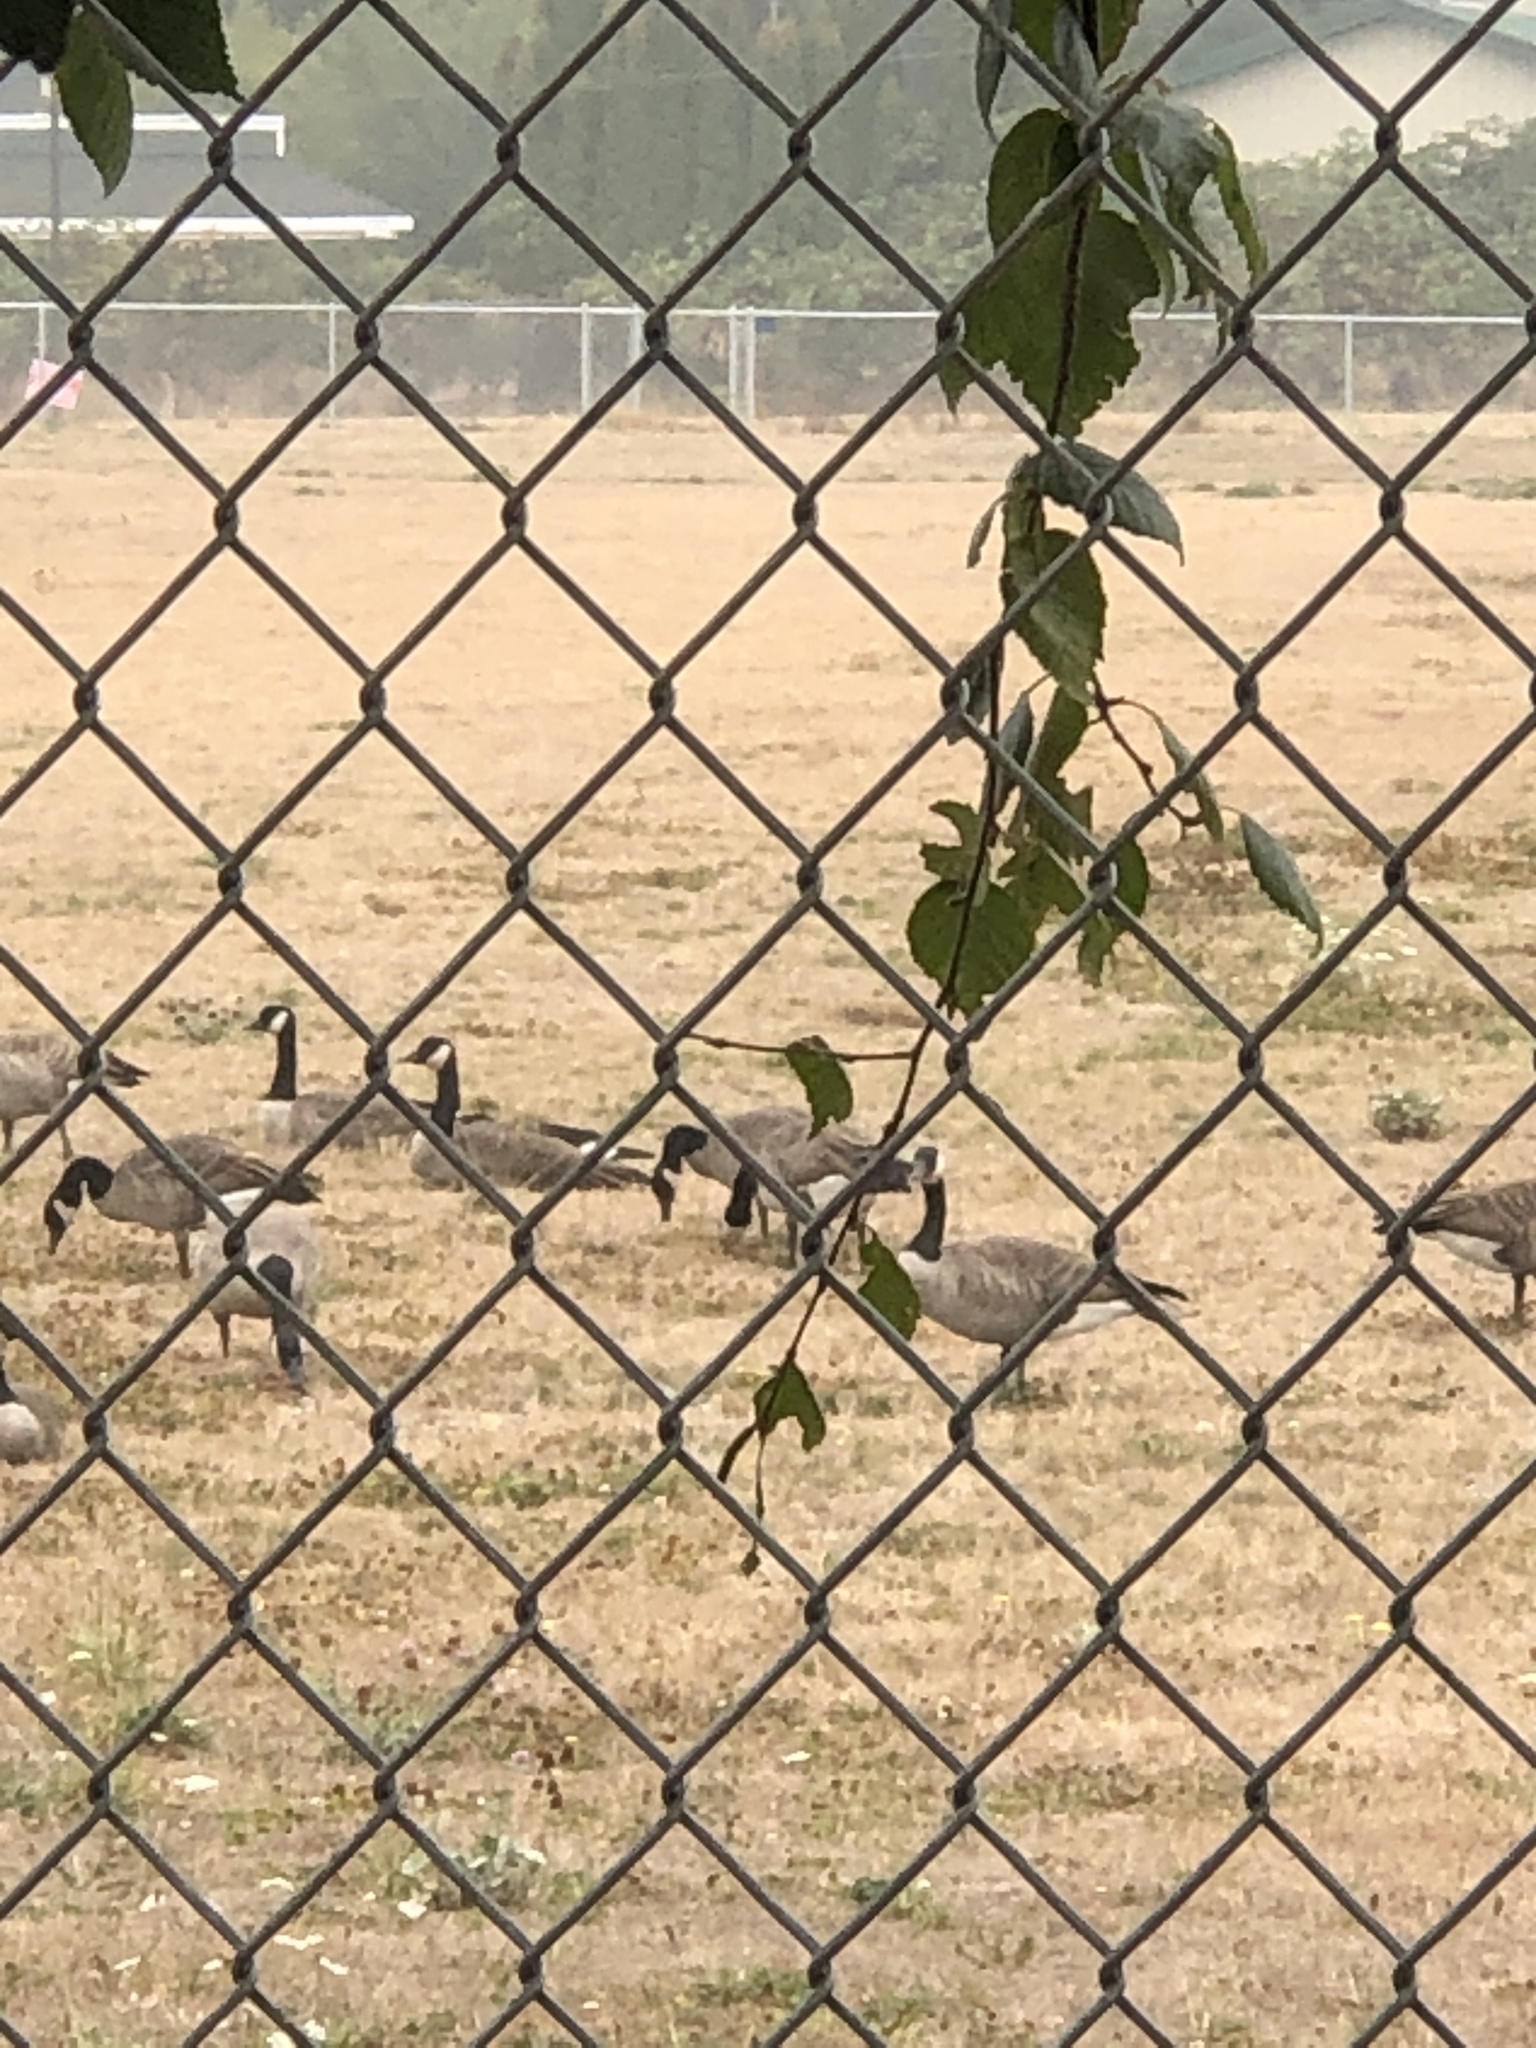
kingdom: Animalia
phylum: Chordata
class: Aves
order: Anseriformes
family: Anatidae
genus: Branta
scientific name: Branta canadensis
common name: Canada goose
